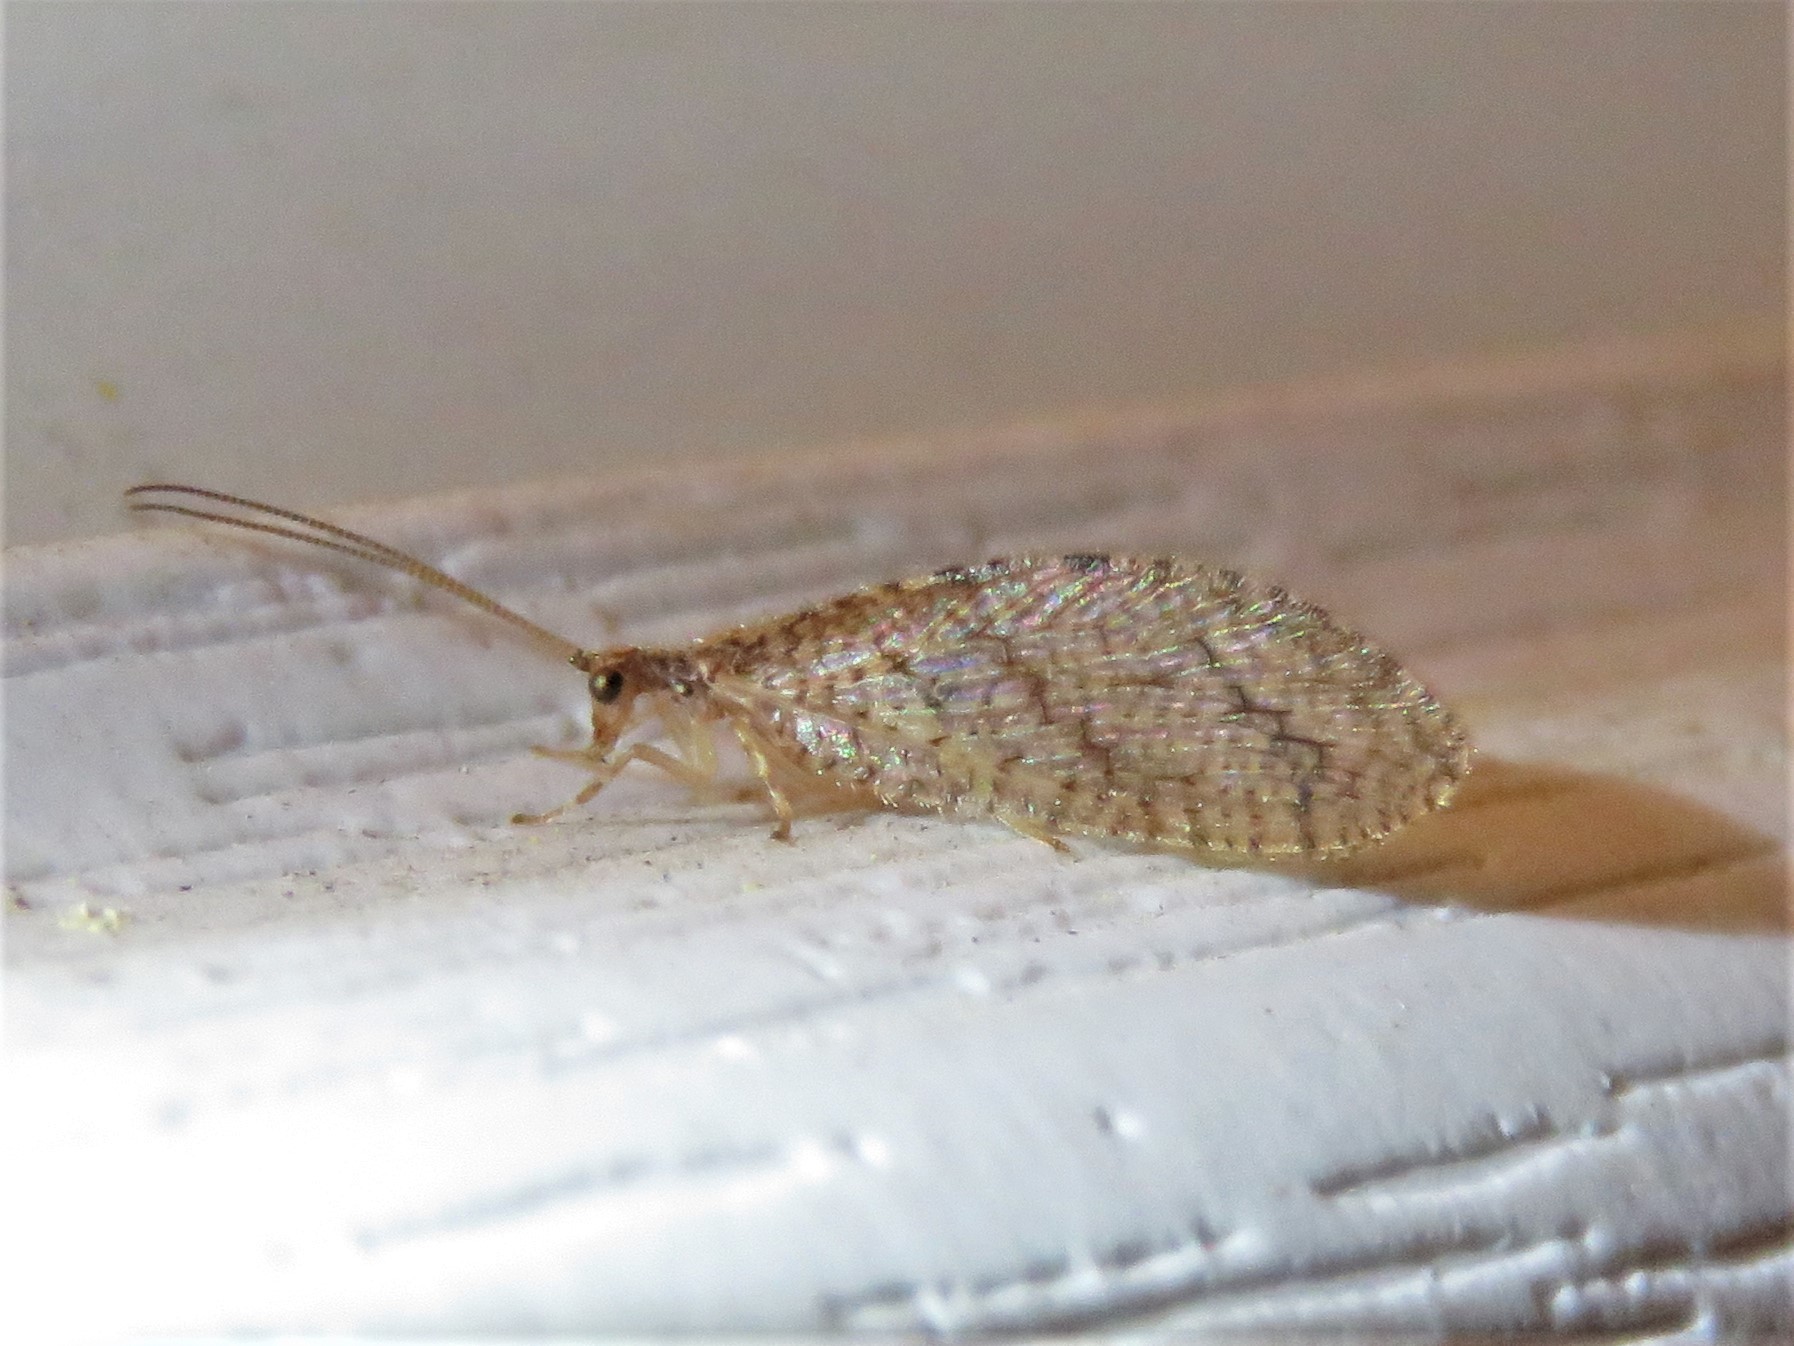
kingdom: Animalia
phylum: Arthropoda
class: Insecta
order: Neuroptera
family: Hemerobiidae
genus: Micromus
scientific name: Micromus posticus
